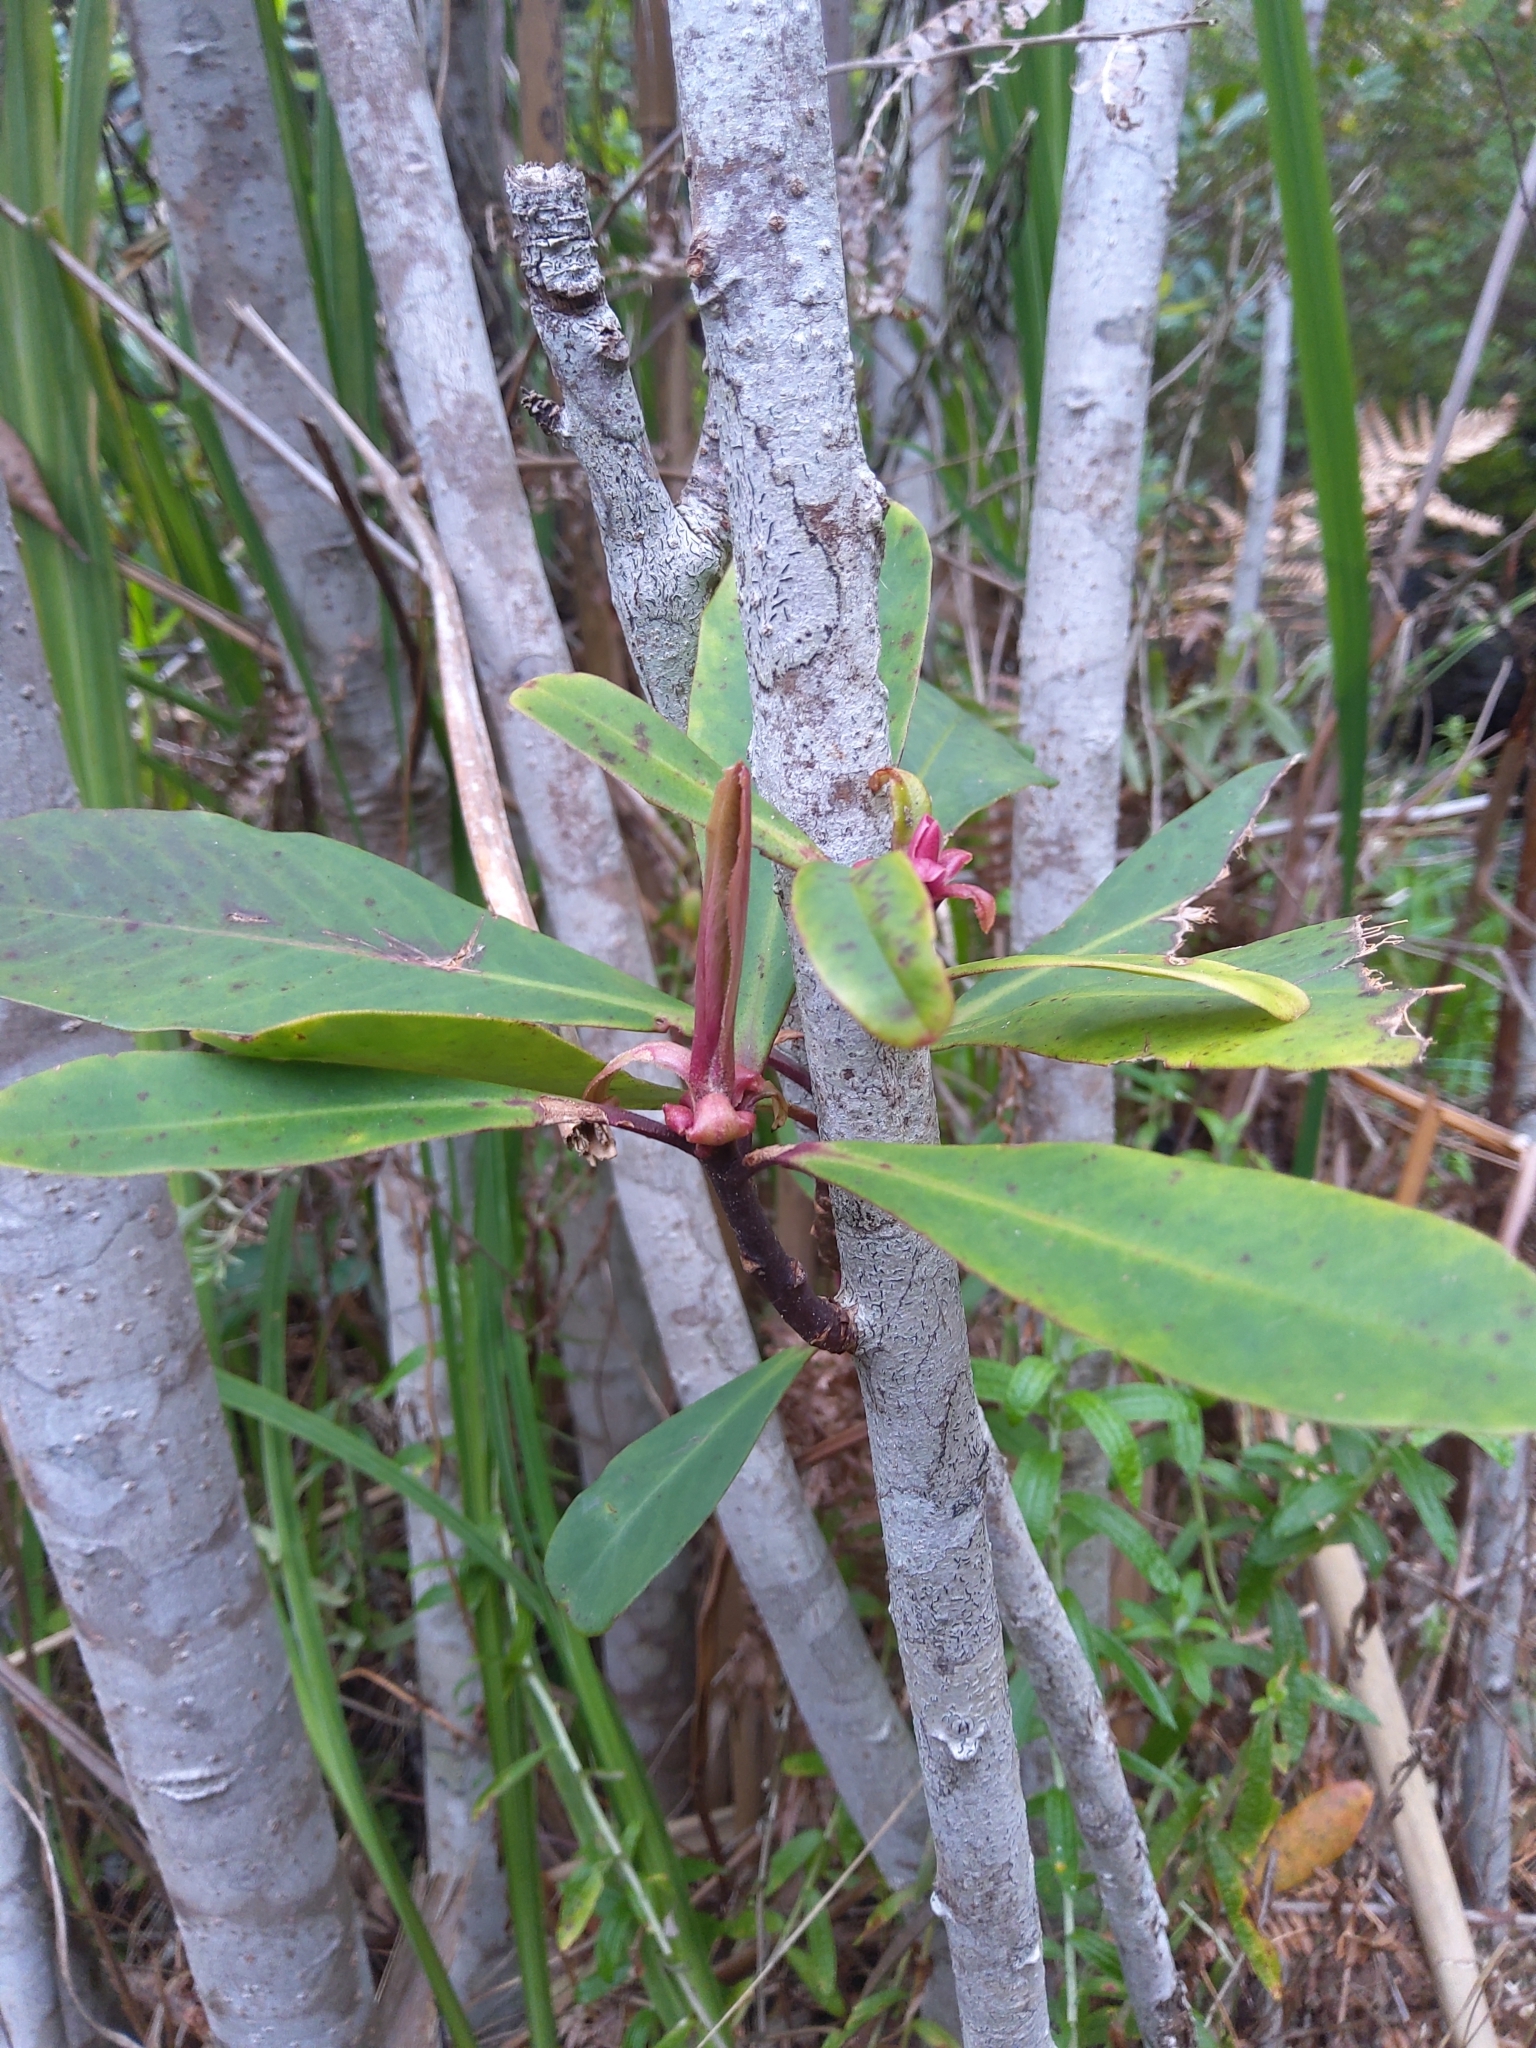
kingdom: Plantae
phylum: Tracheophyta
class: Magnoliopsida
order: Ericales
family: Primulaceae
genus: Myrsine
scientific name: Myrsine melanophloeos
